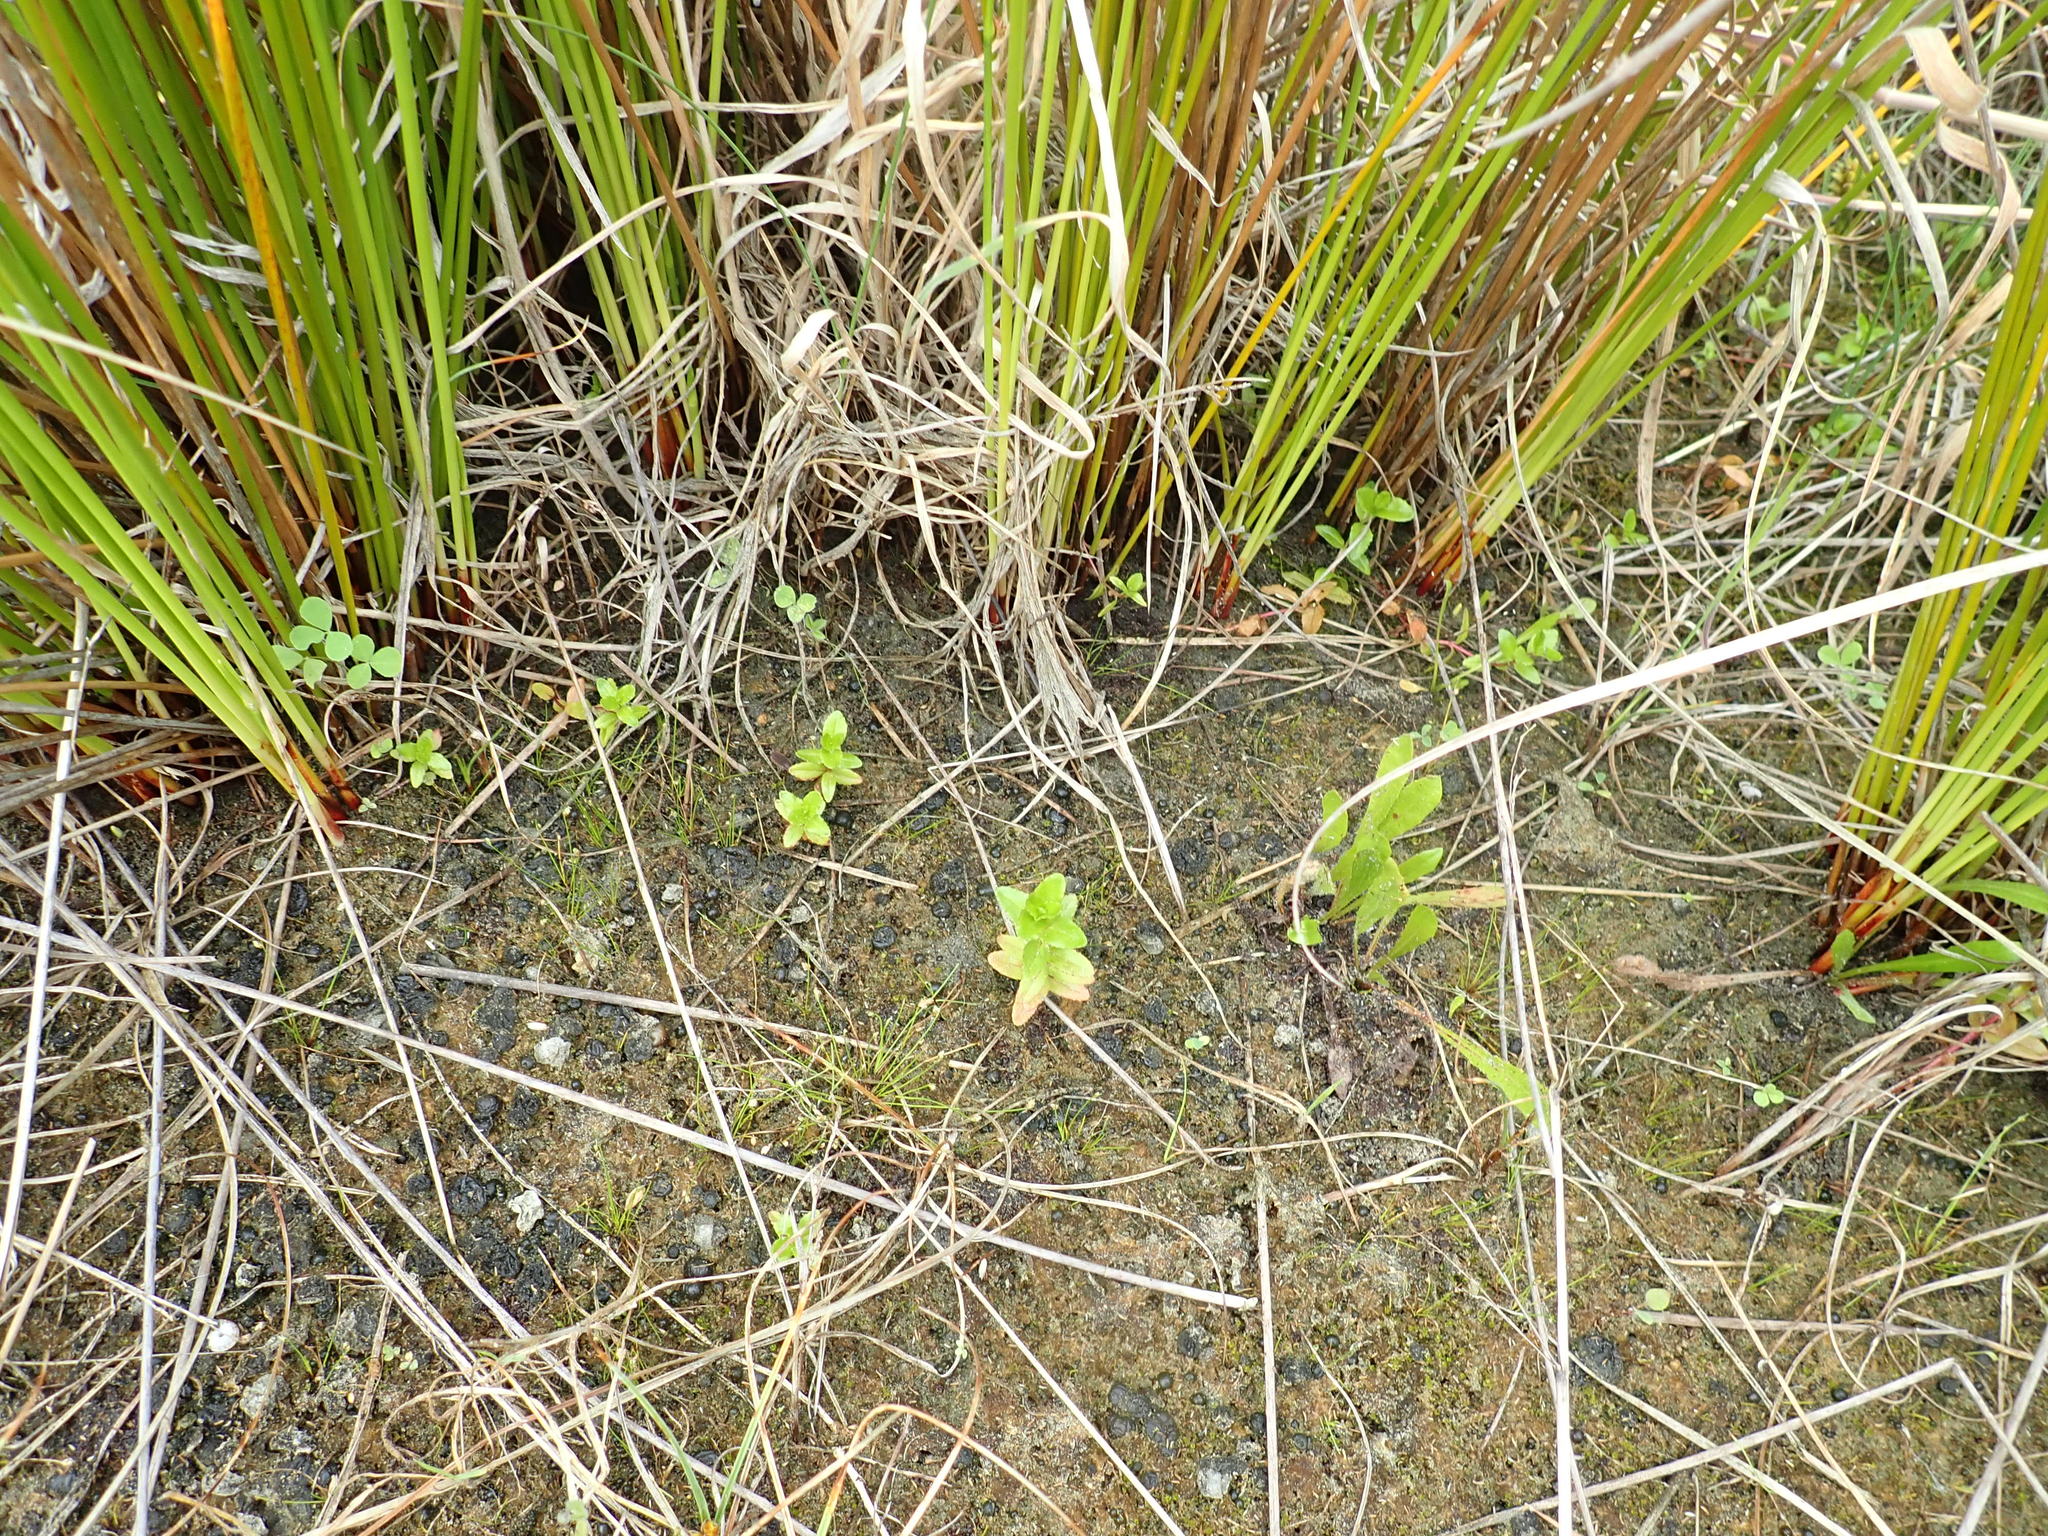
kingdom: Plantae
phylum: Tracheophyta
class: Magnoliopsida
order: Myrtales
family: Onagraceae
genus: Epilobium
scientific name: Epilobium billardiereanum
